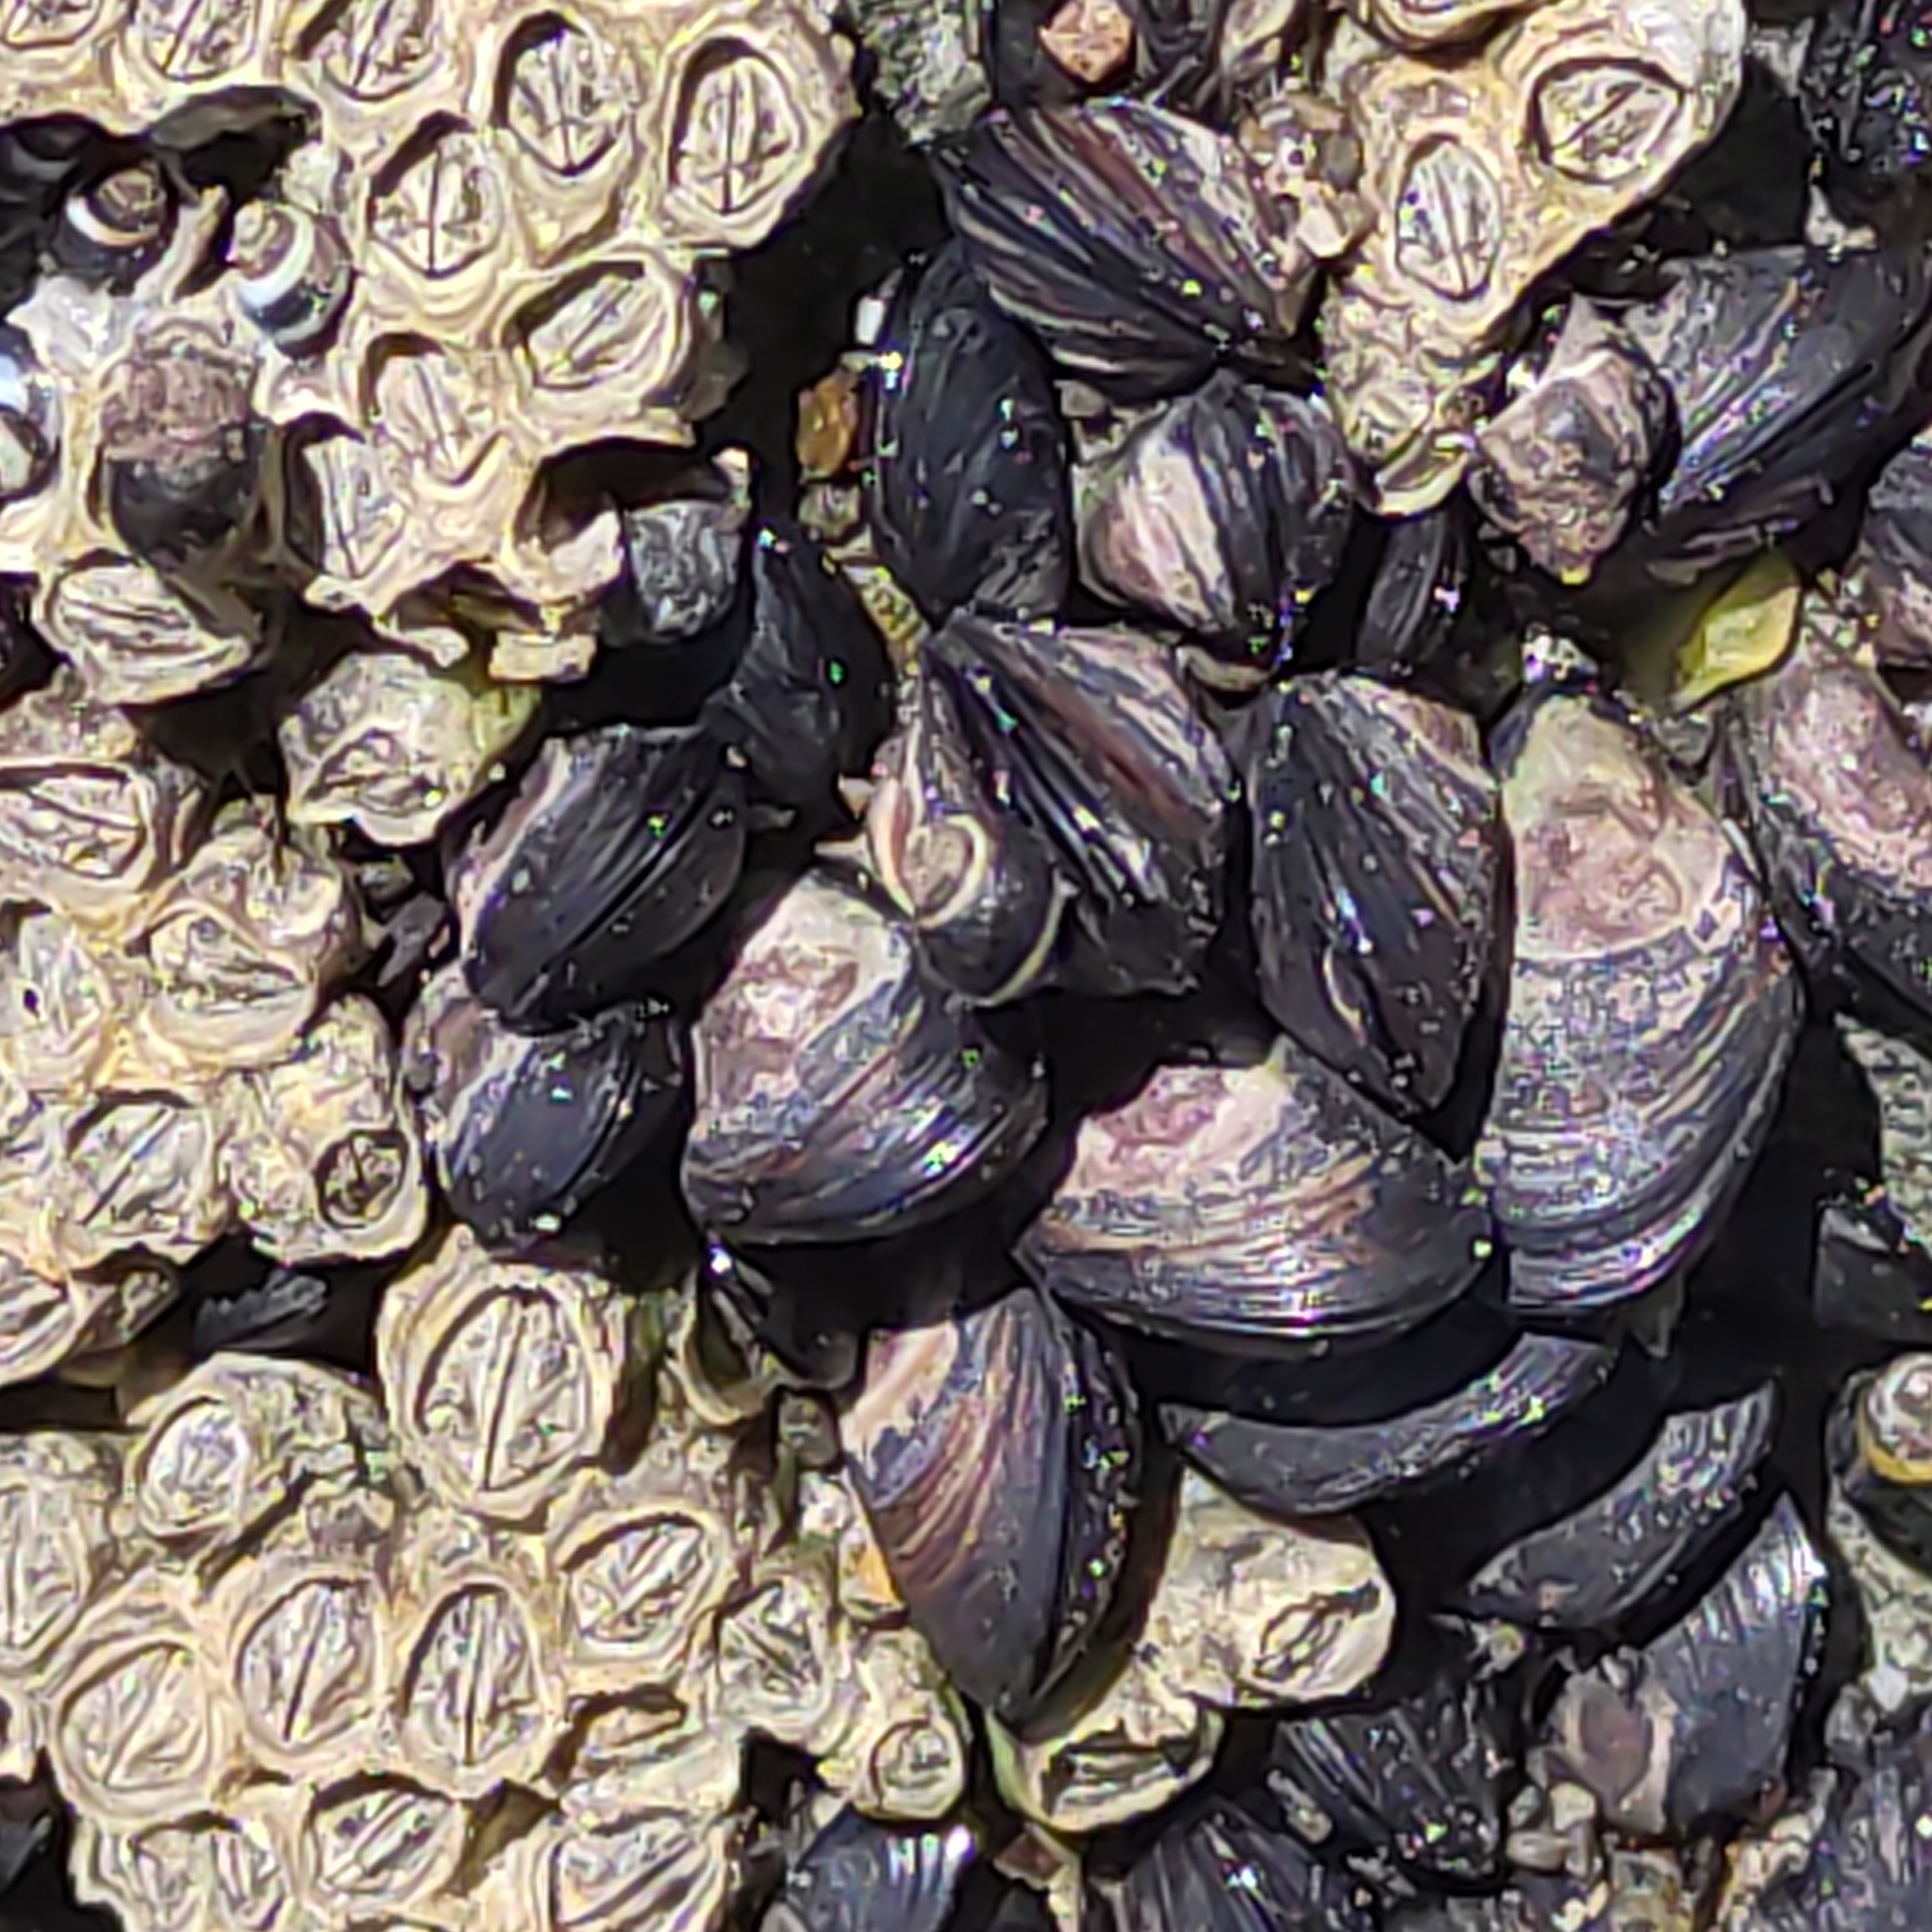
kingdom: Animalia
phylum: Mollusca
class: Bivalvia
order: Mytilida
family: Mytilidae
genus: Xenostrobus
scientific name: Xenostrobus neozelanicus
